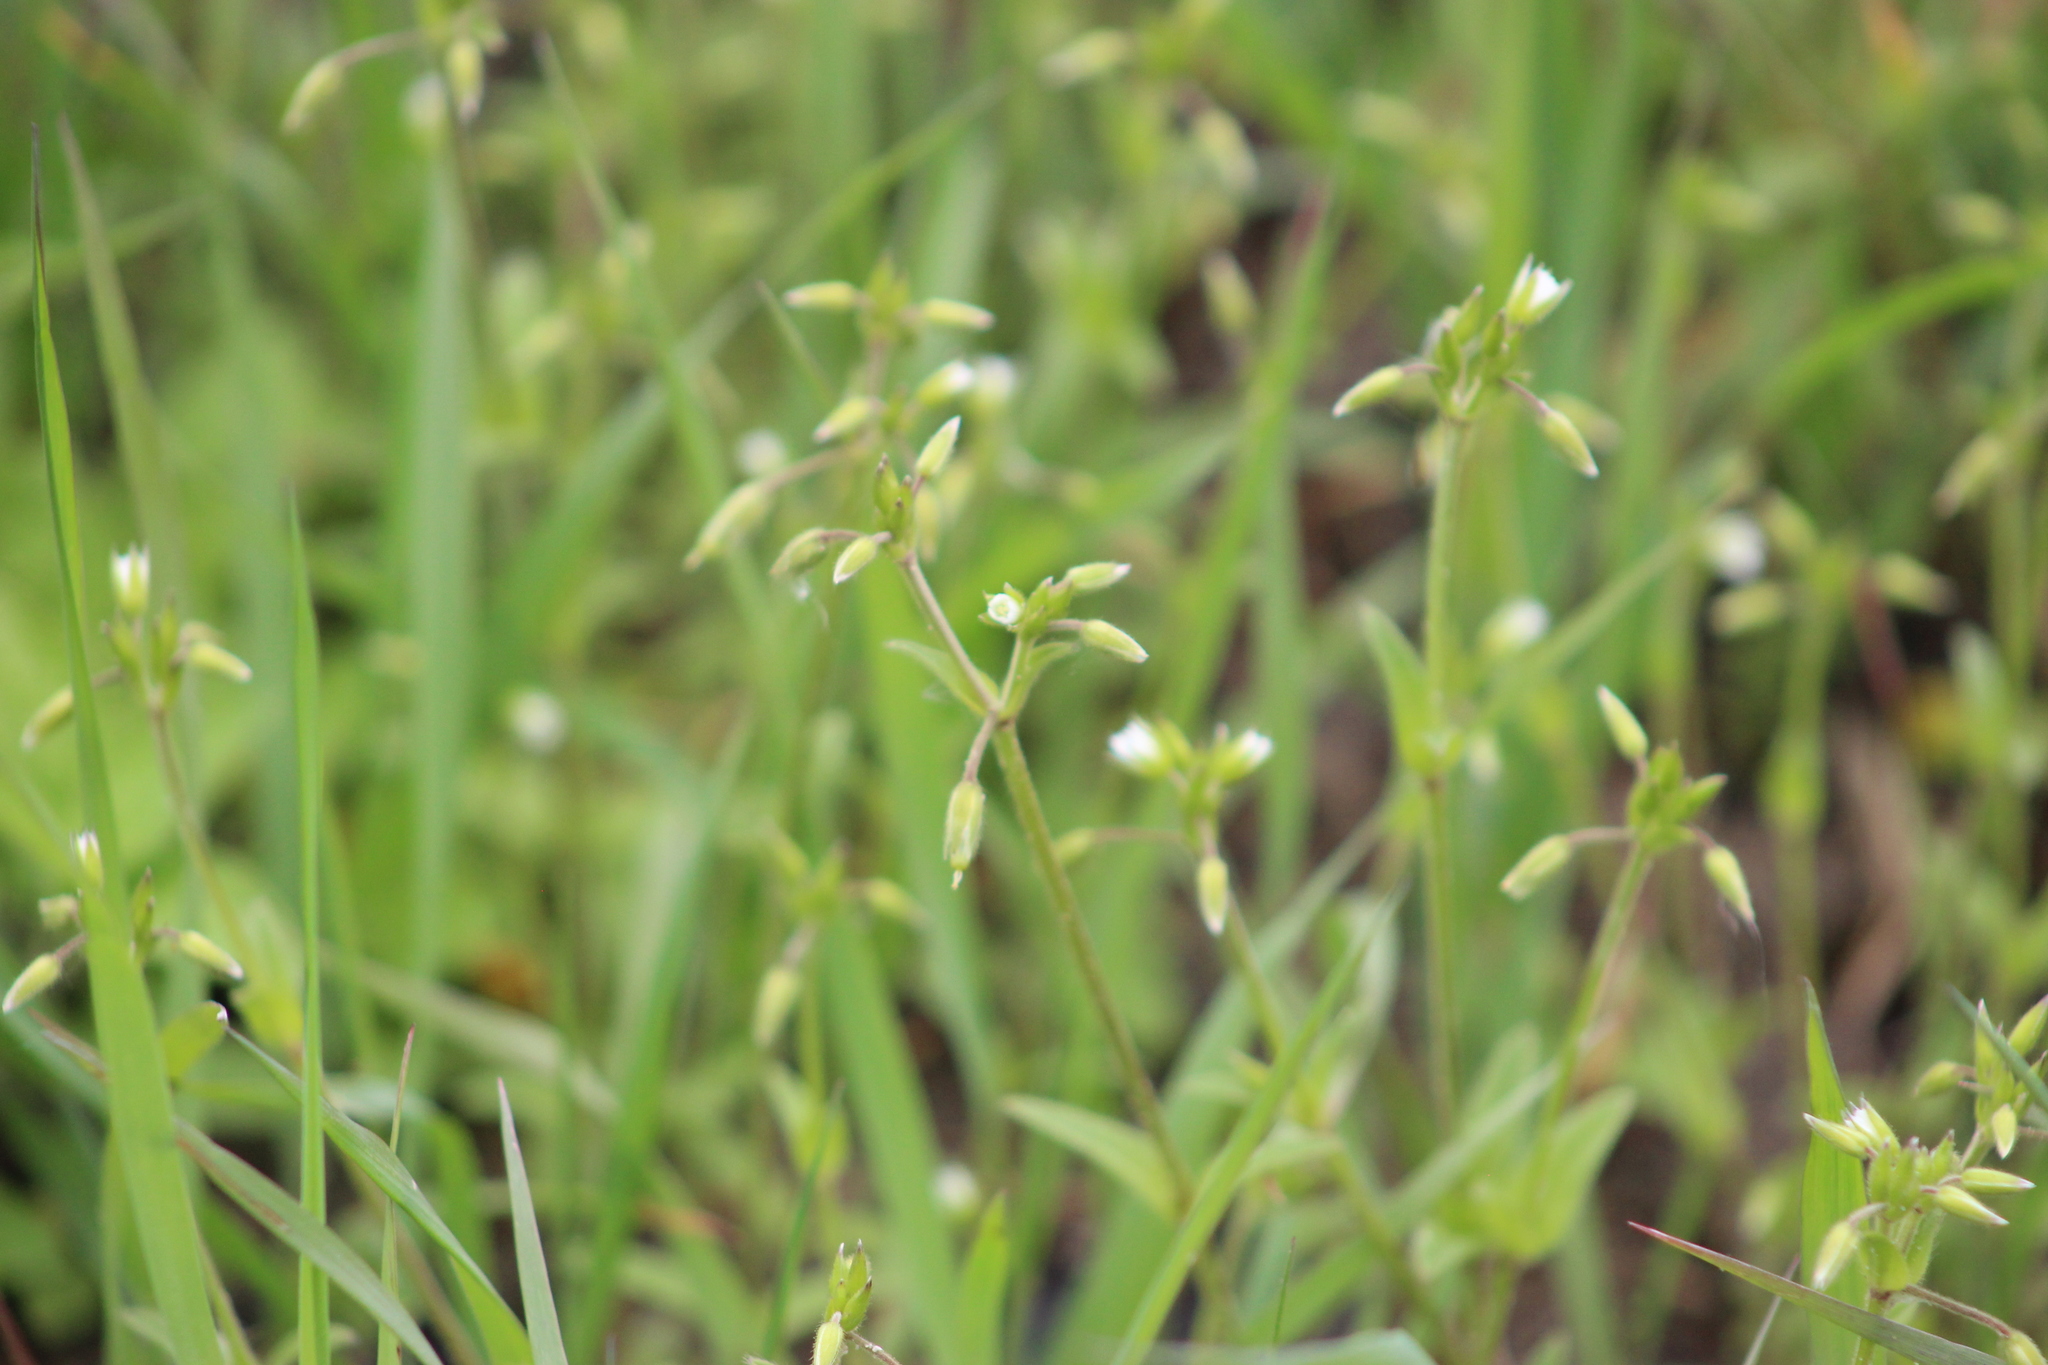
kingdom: Plantae
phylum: Tracheophyta
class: Magnoliopsida
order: Caryophyllales
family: Caryophyllaceae
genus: Cerastium
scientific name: Cerastium holosteoides
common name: Big chickweed
